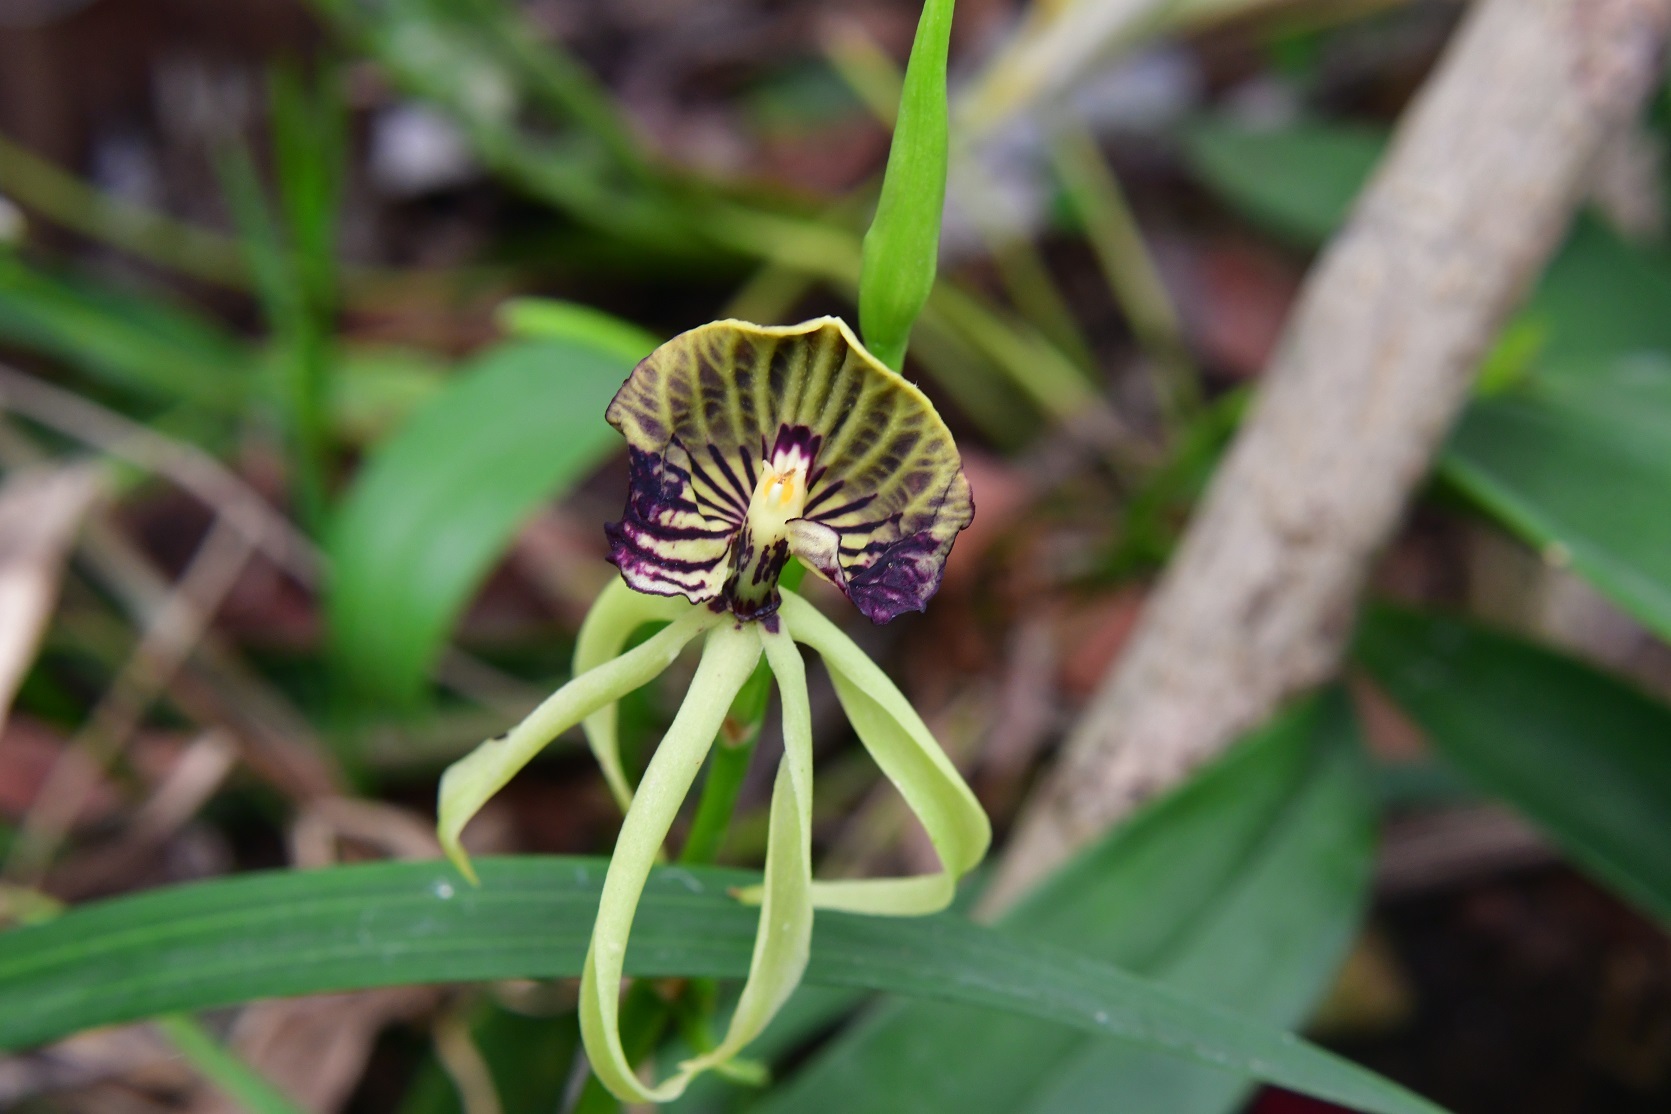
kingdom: Plantae
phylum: Tracheophyta
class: Liliopsida
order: Asparagales
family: Orchidaceae
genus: Prosthechea
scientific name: Prosthechea cochleata
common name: Clamshell orchid
